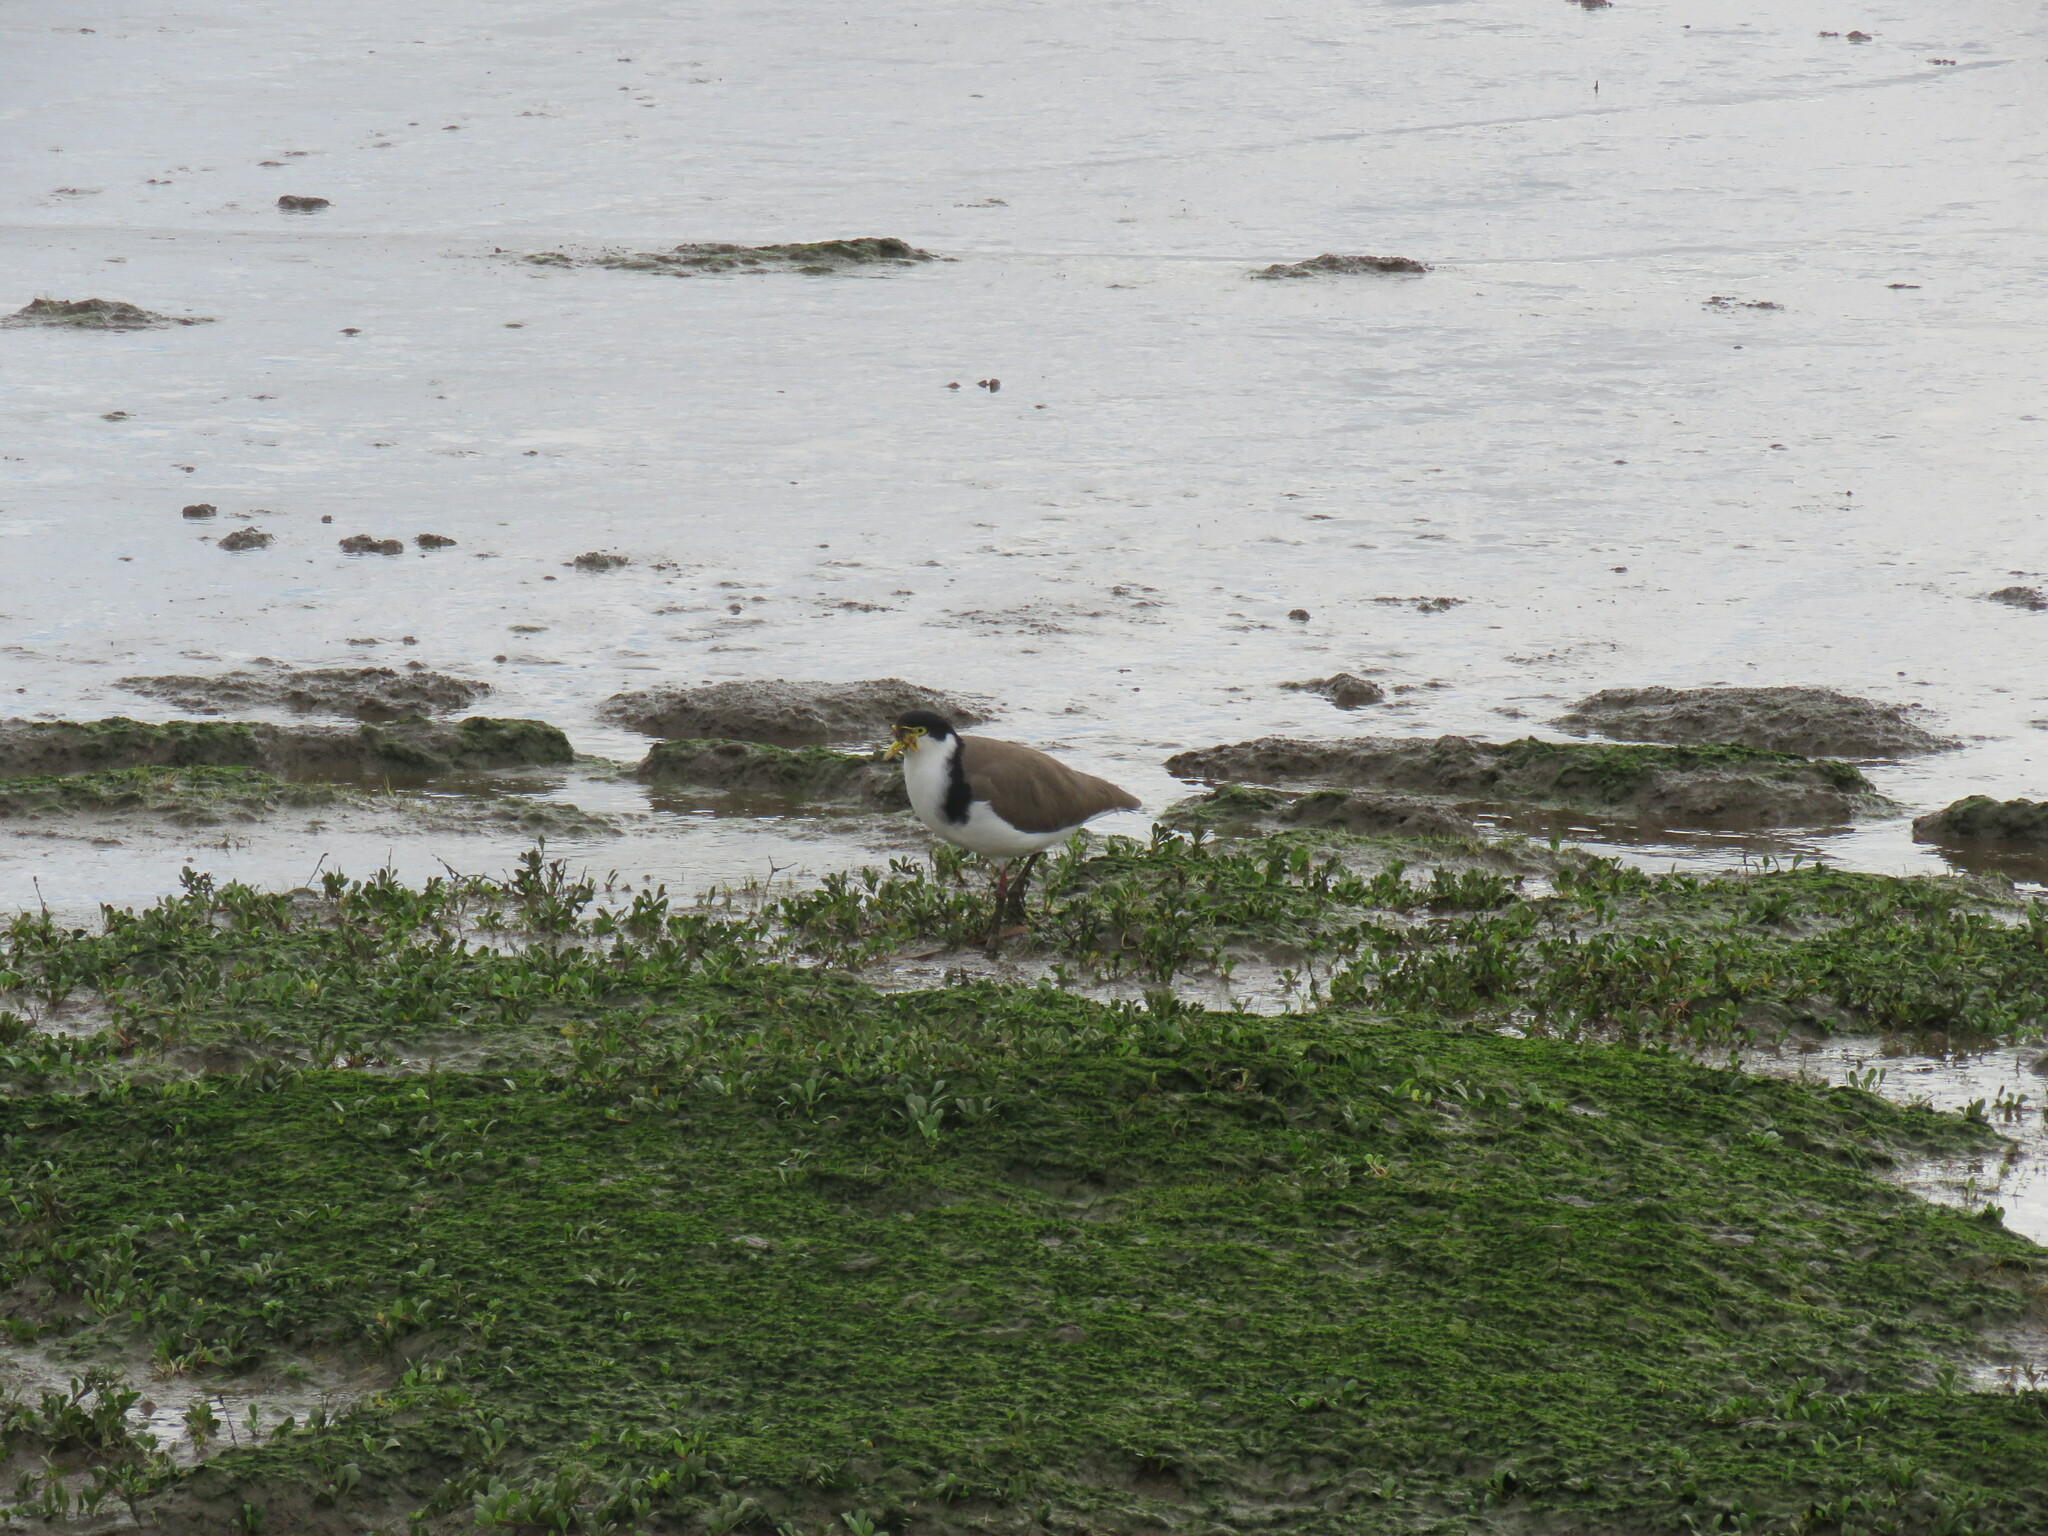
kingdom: Animalia
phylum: Chordata
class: Aves
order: Charadriiformes
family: Charadriidae
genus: Vanellus
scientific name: Vanellus miles
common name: Masked lapwing
